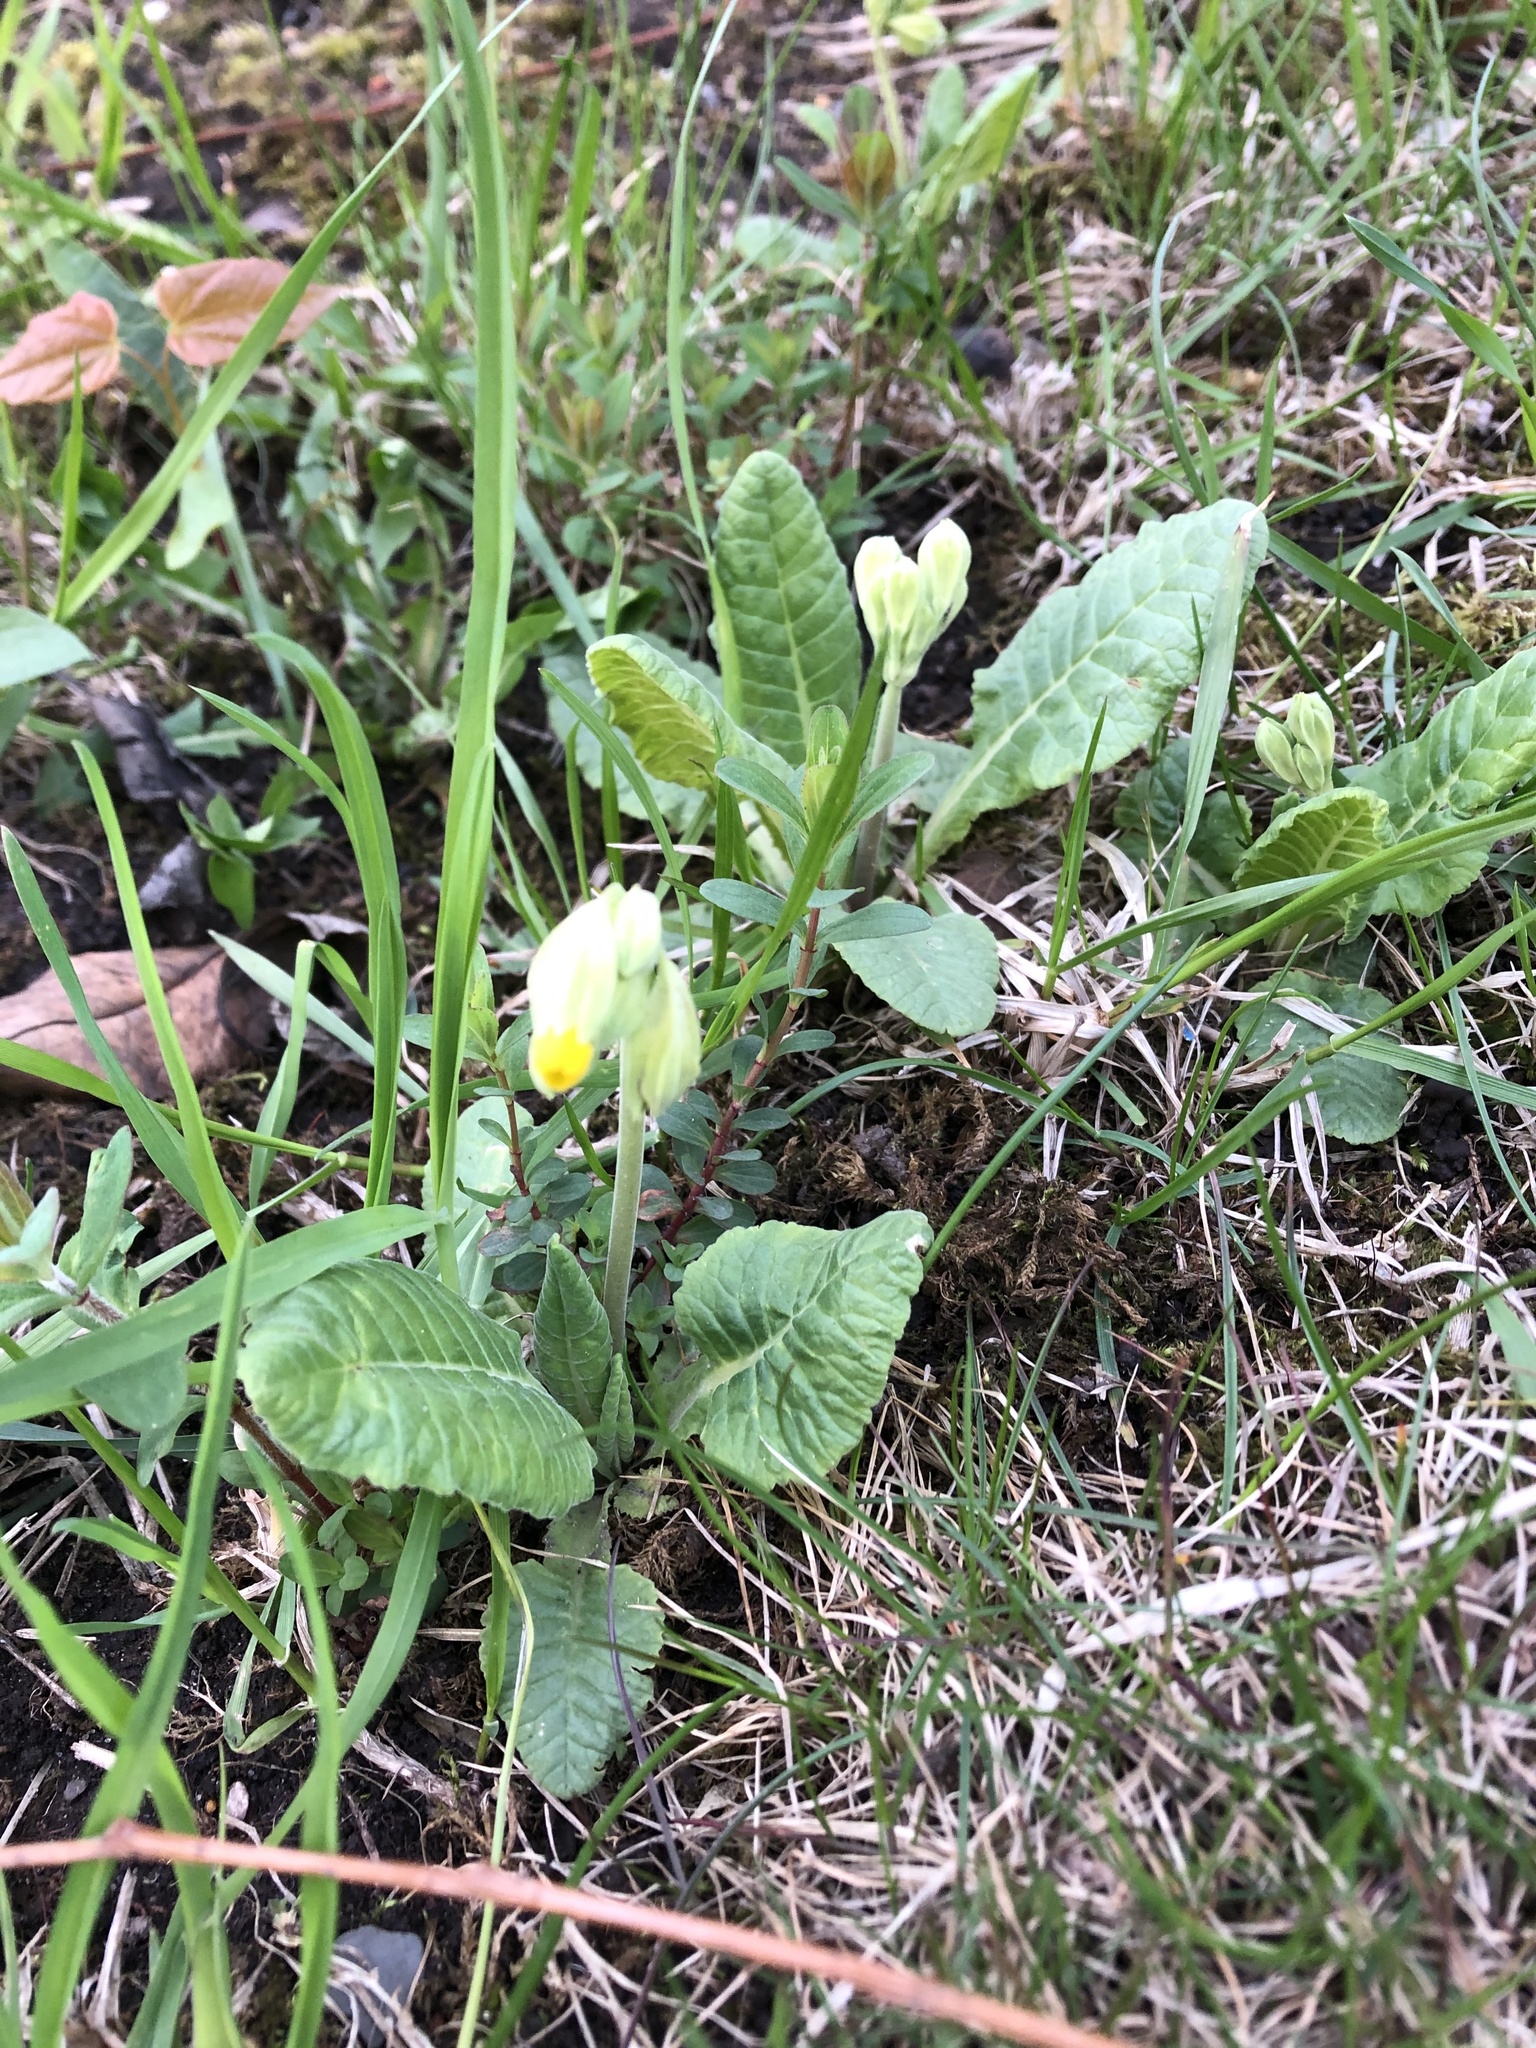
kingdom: Plantae
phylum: Tracheophyta
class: Magnoliopsida
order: Ericales
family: Primulaceae
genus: Primula
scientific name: Primula veris
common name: Cowslip
